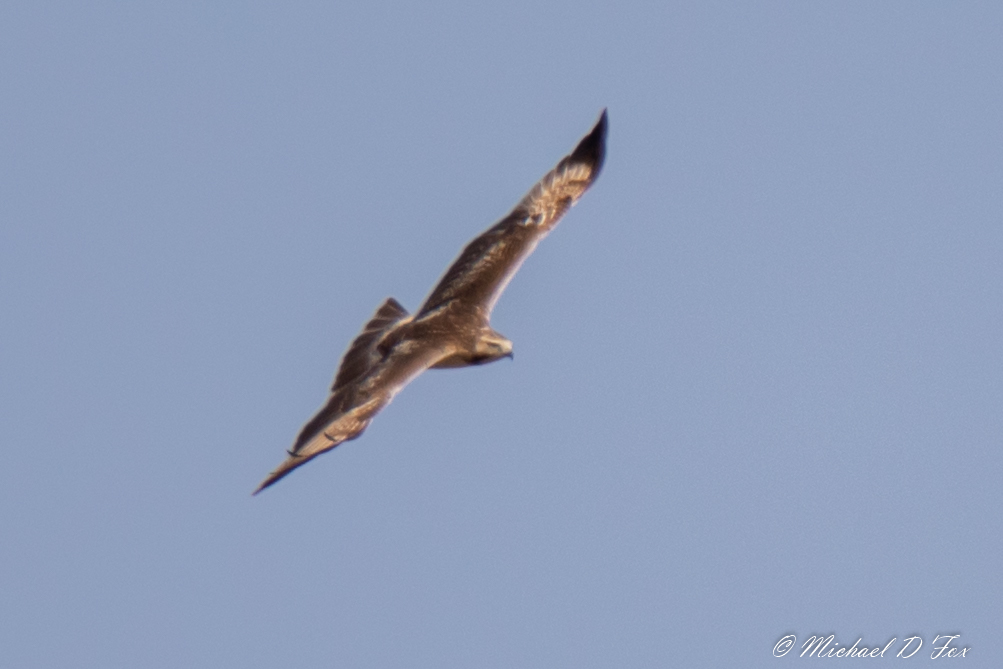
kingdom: Animalia
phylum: Chordata
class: Aves
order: Accipitriformes
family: Accipitridae
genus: Buteo
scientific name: Buteo jamaicensis
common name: Red-tailed hawk
